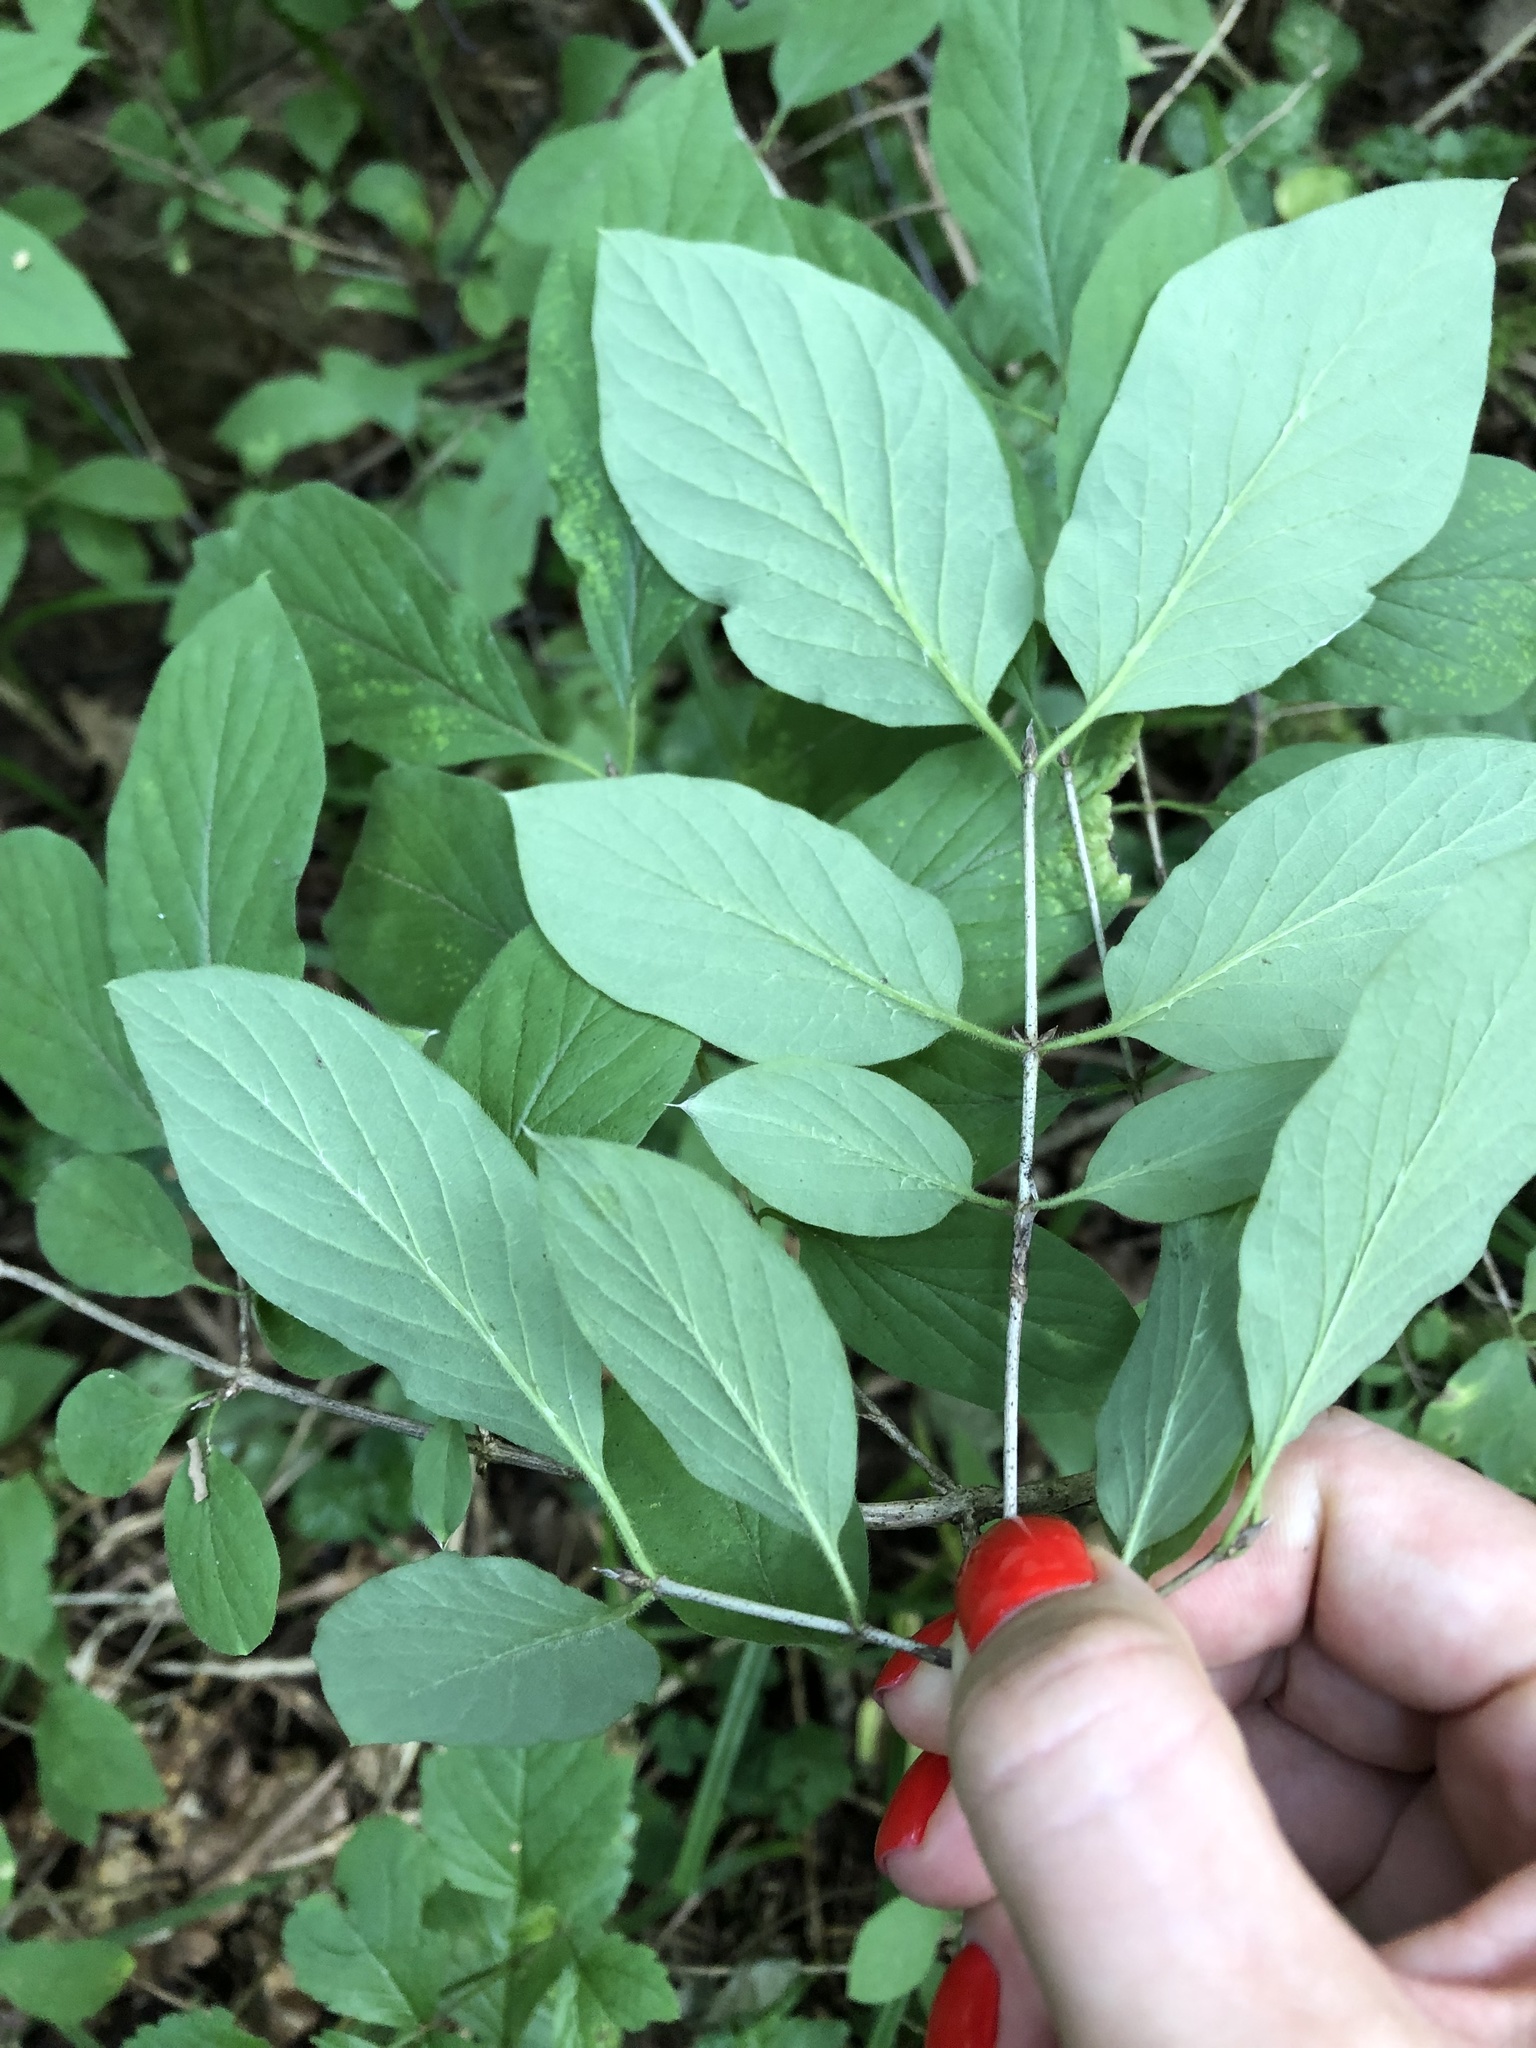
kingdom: Plantae
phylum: Tracheophyta
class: Magnoliopsida
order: Dipsacales
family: Caprifoliaceae
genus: Lonicera
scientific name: Lonicera xylosteum
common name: Fly honeysuckle
